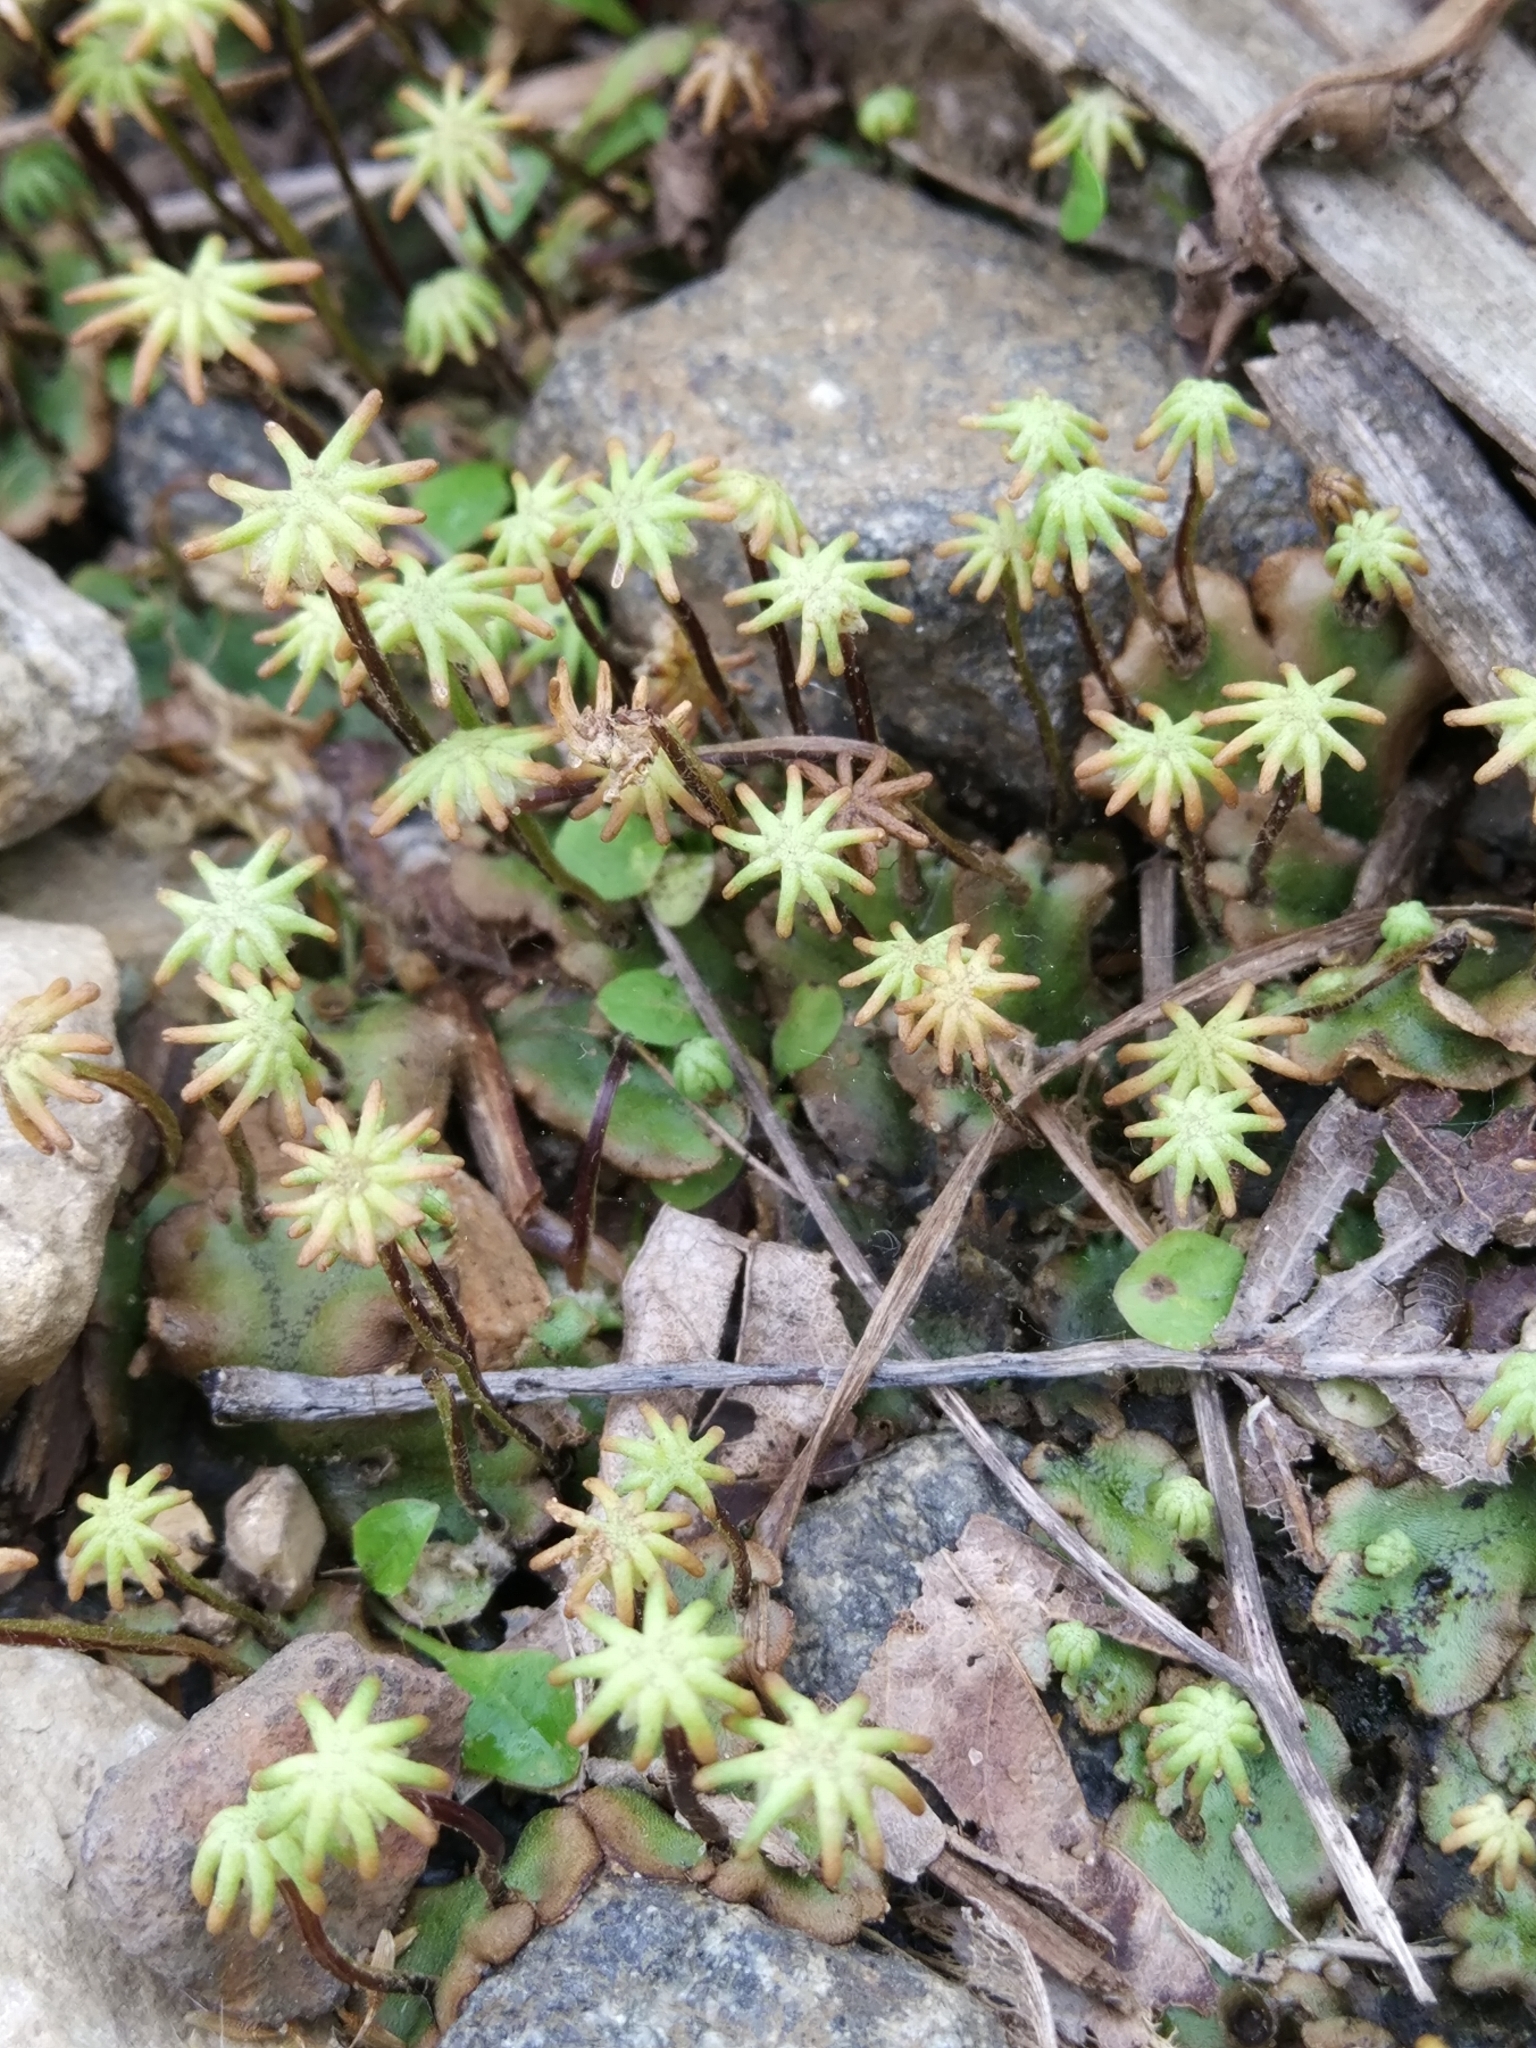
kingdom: Plantae
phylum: Marchantiophyta
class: Marchantiopsida
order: Marchantiales
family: Marchantiaceae
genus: Marchantia
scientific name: Marchantia polymorpha
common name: Common liverwort
